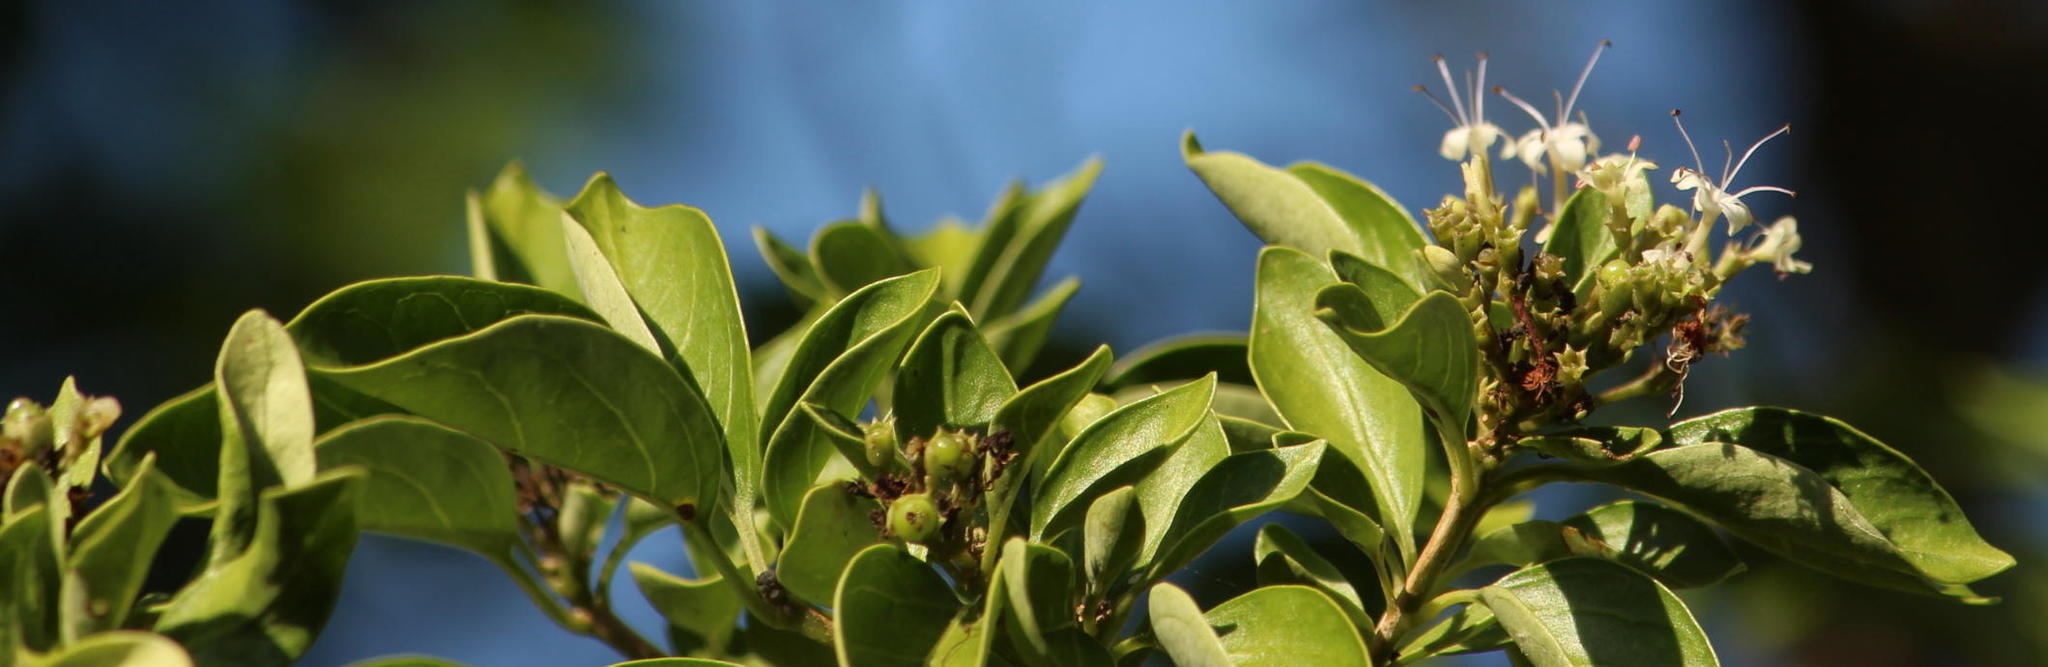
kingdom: Plantae
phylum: Tracheophyta
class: Magnoliopsida
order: Lamiales
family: Lamiaceae
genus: Volkameria
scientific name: Volkameria glabra
